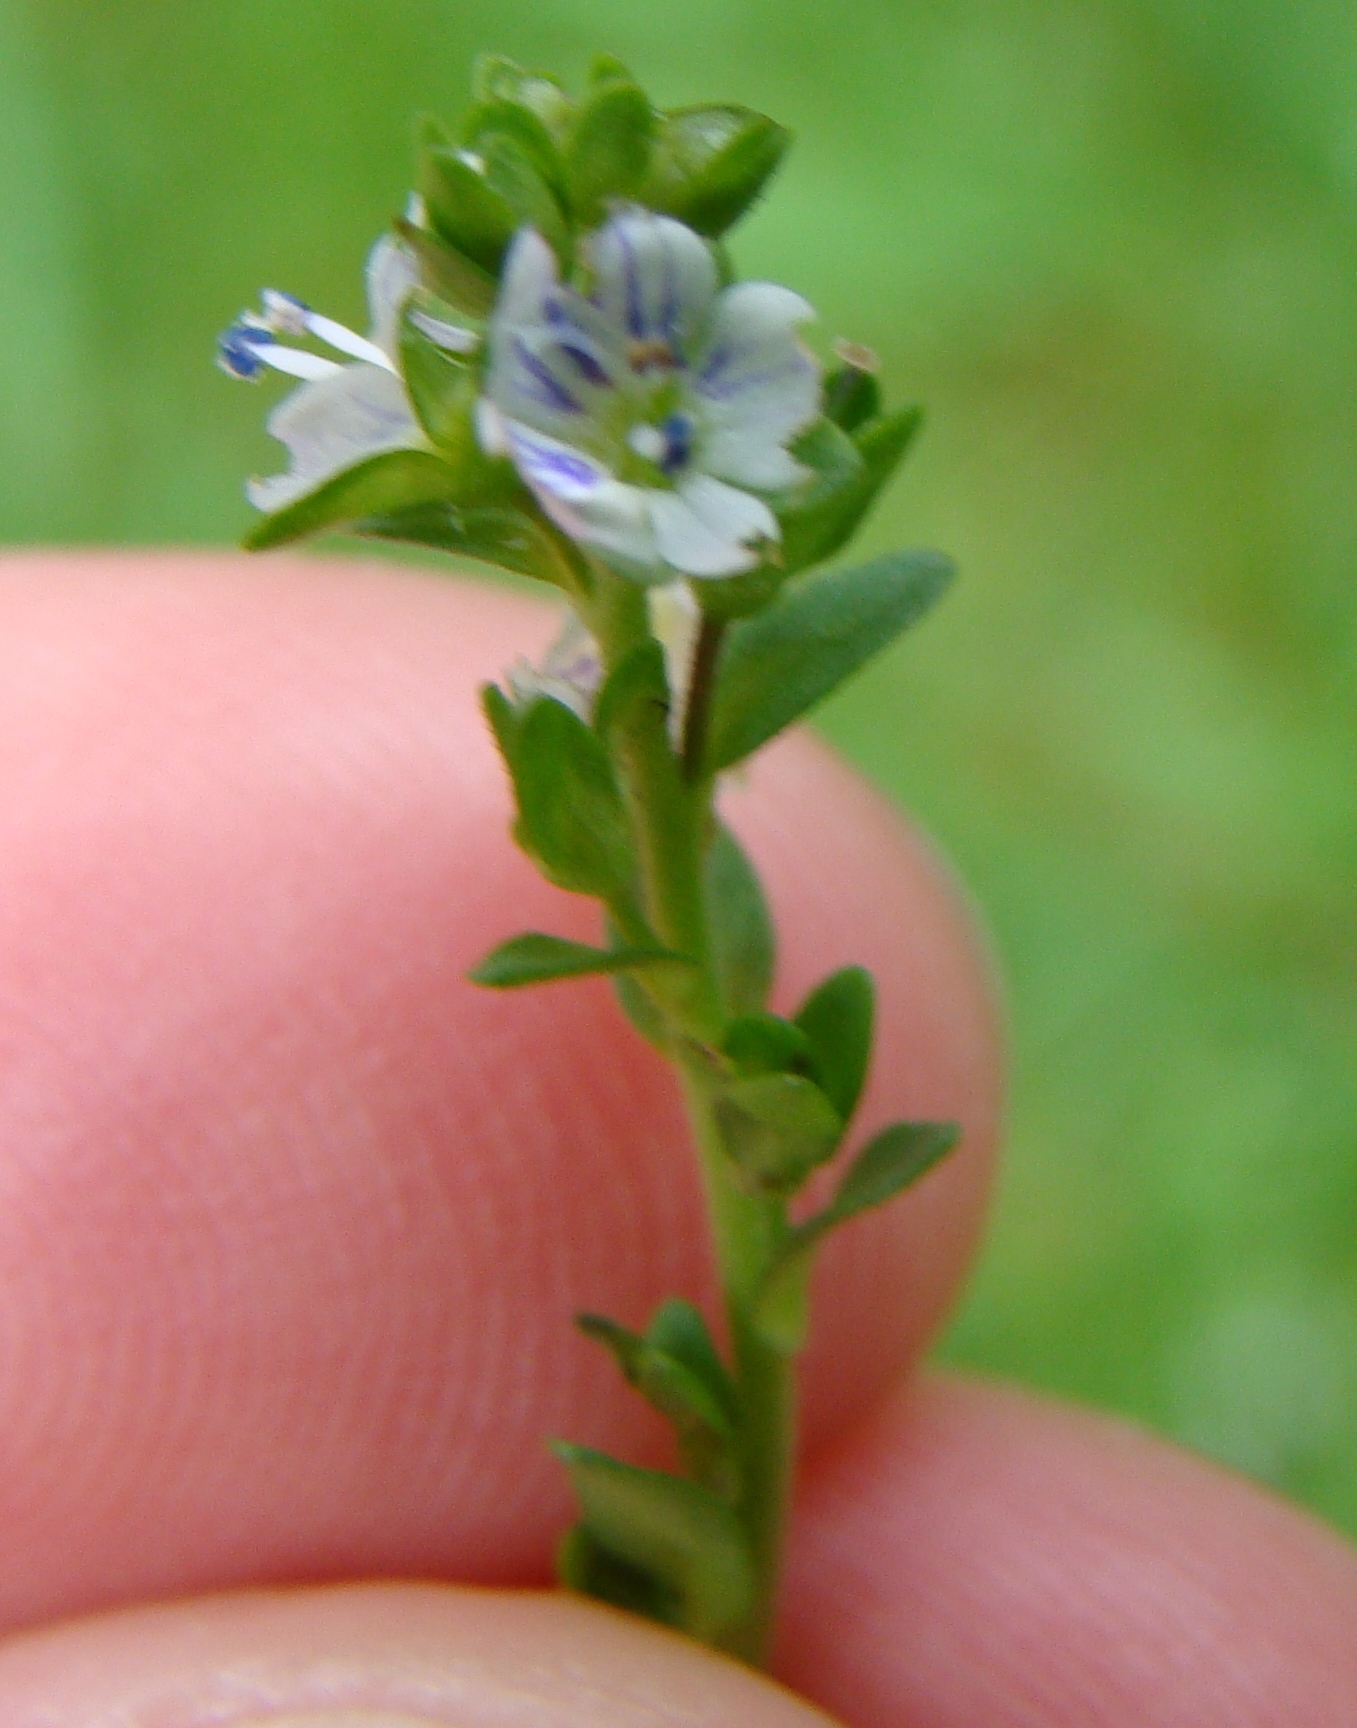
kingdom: Plantae
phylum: Tracheophyta
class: Magnoliopsida
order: Lamiales
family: Plantaginaceae
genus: Veronica
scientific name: Veronica serpyllifolia
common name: Thyme-leaved speedwell
